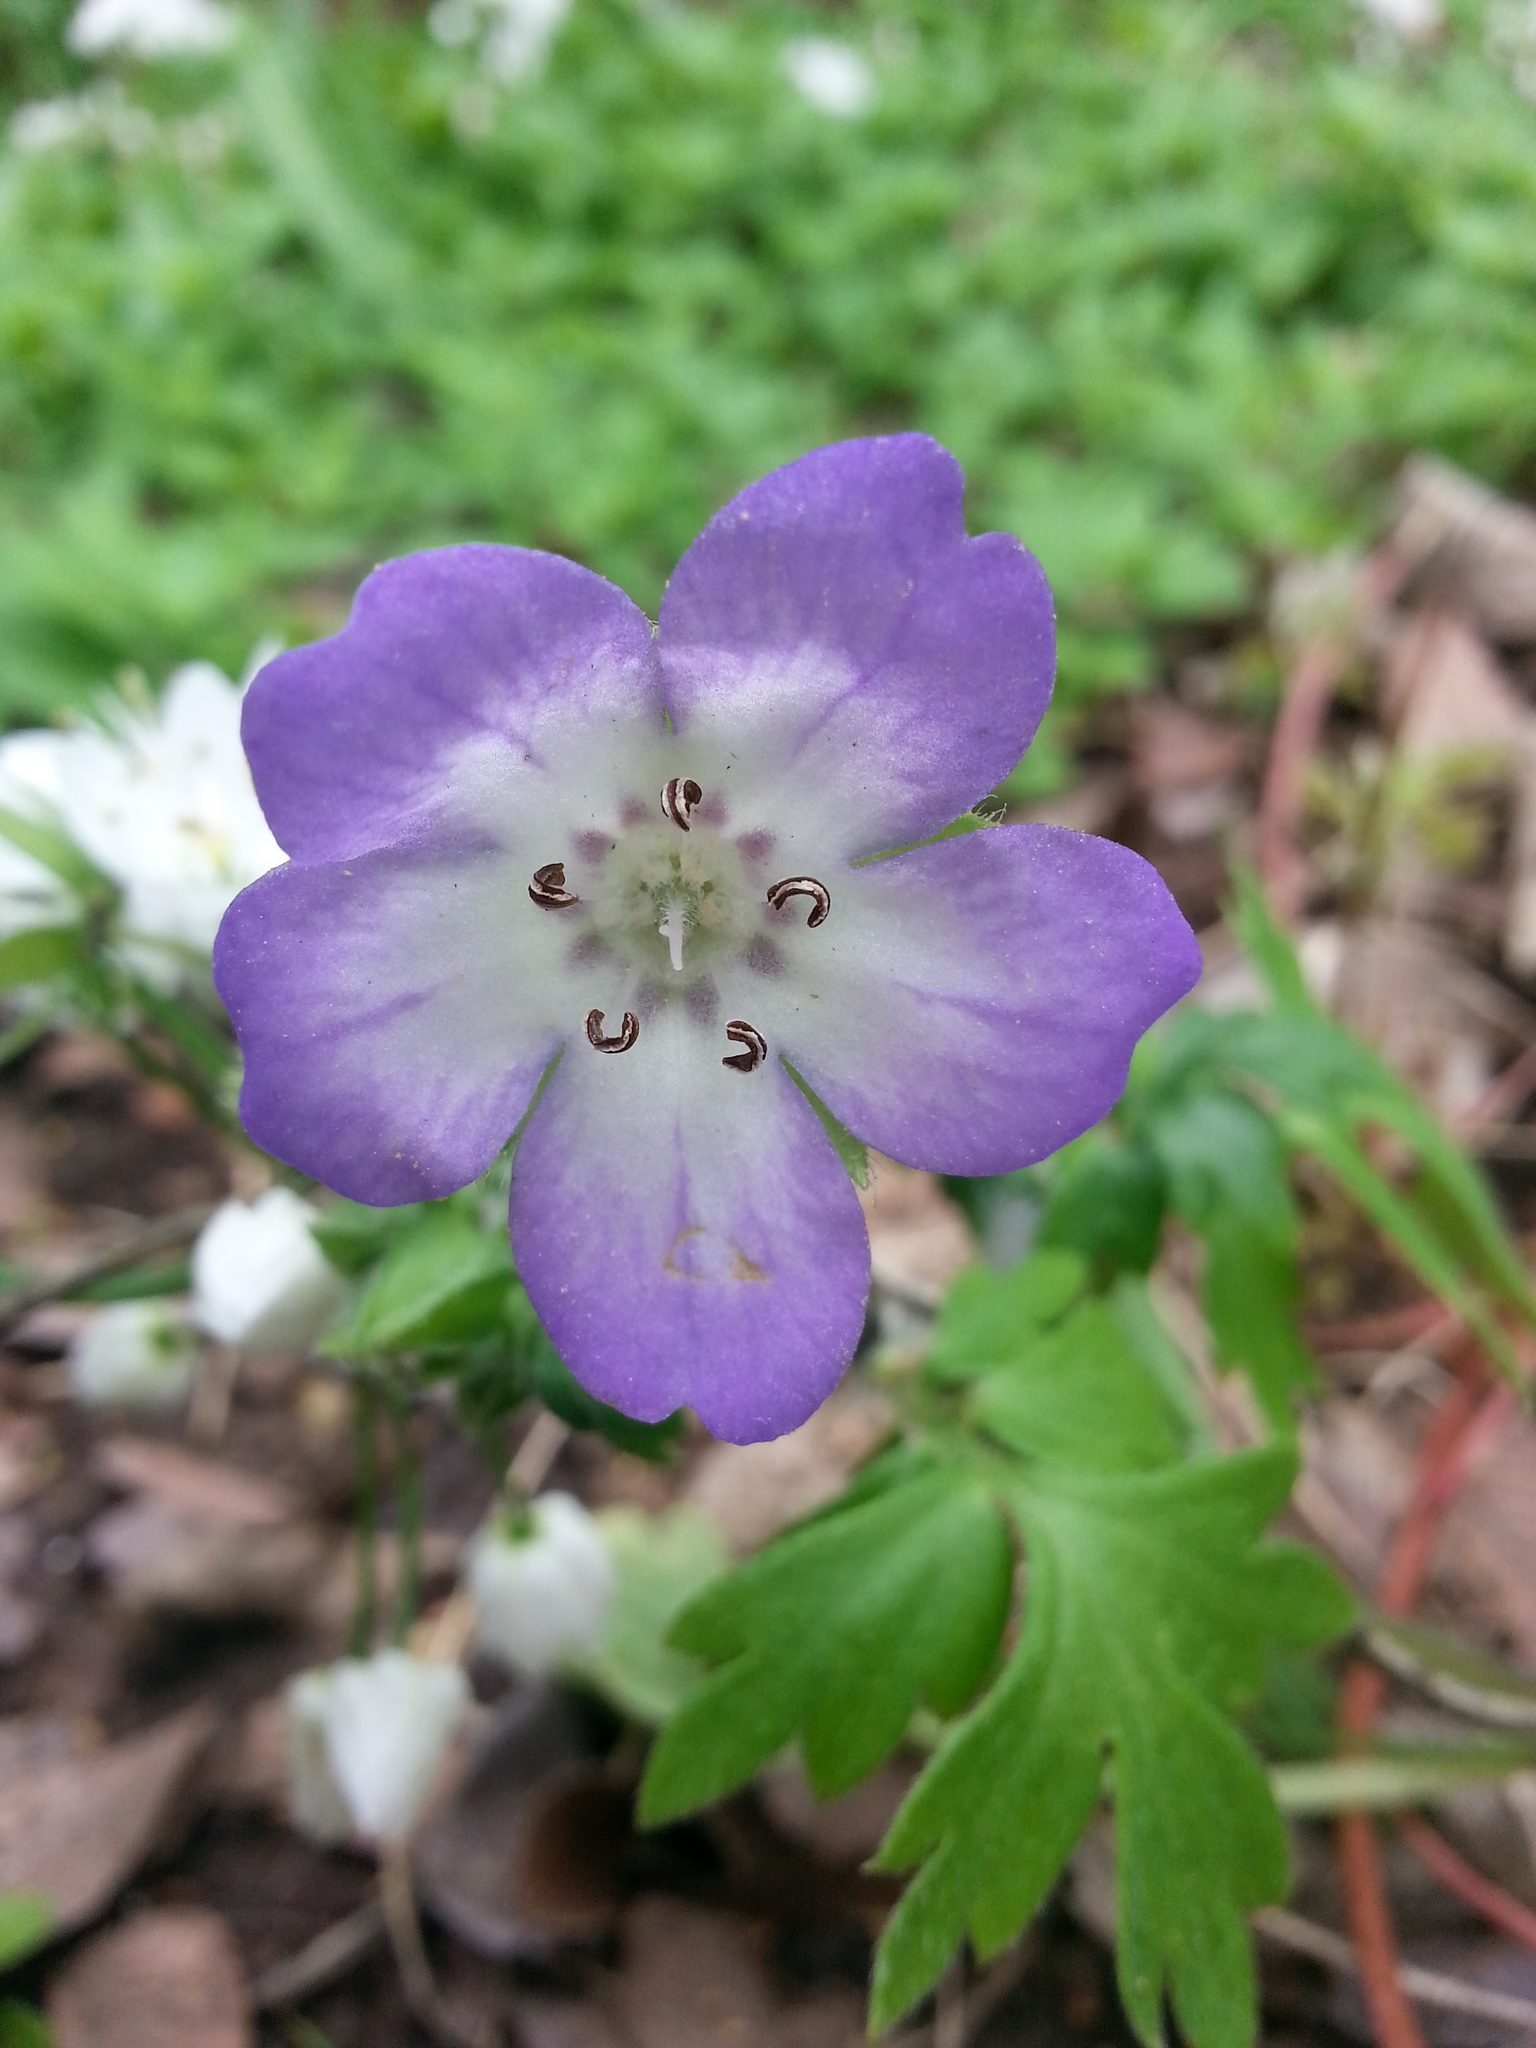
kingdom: Plantae
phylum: Tracheophyta
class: Magnoliopsida
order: Boraginales
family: Hydrophyllaceae
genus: Nemophila
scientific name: Nemophila phacelioides
